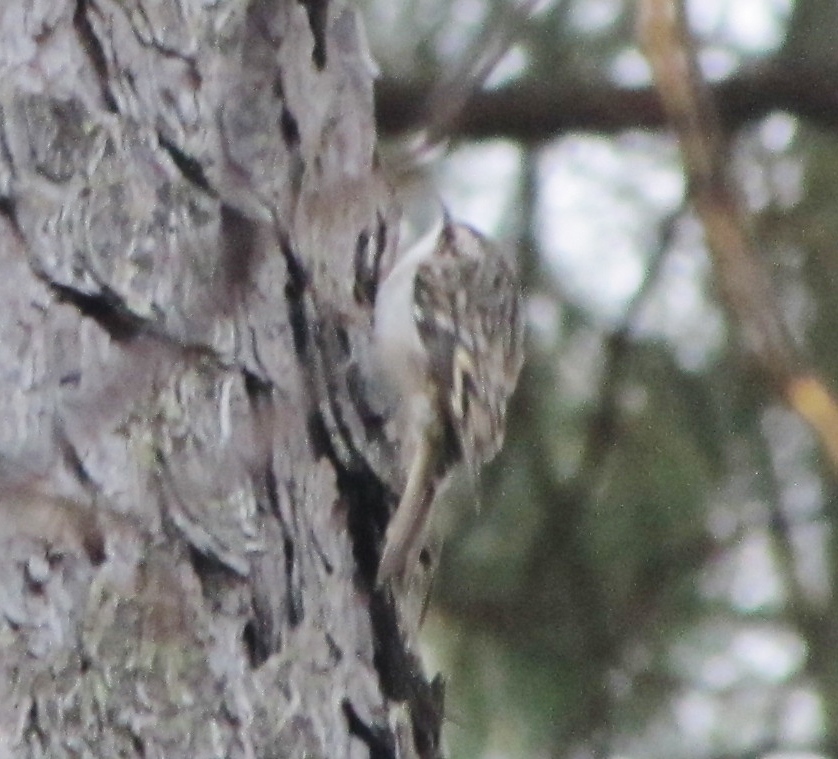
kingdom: Animalia
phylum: Chordata
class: Aves
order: Passeriformes
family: Certhiidae
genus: Certhia
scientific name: Certhia americana
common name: Brown creeper
